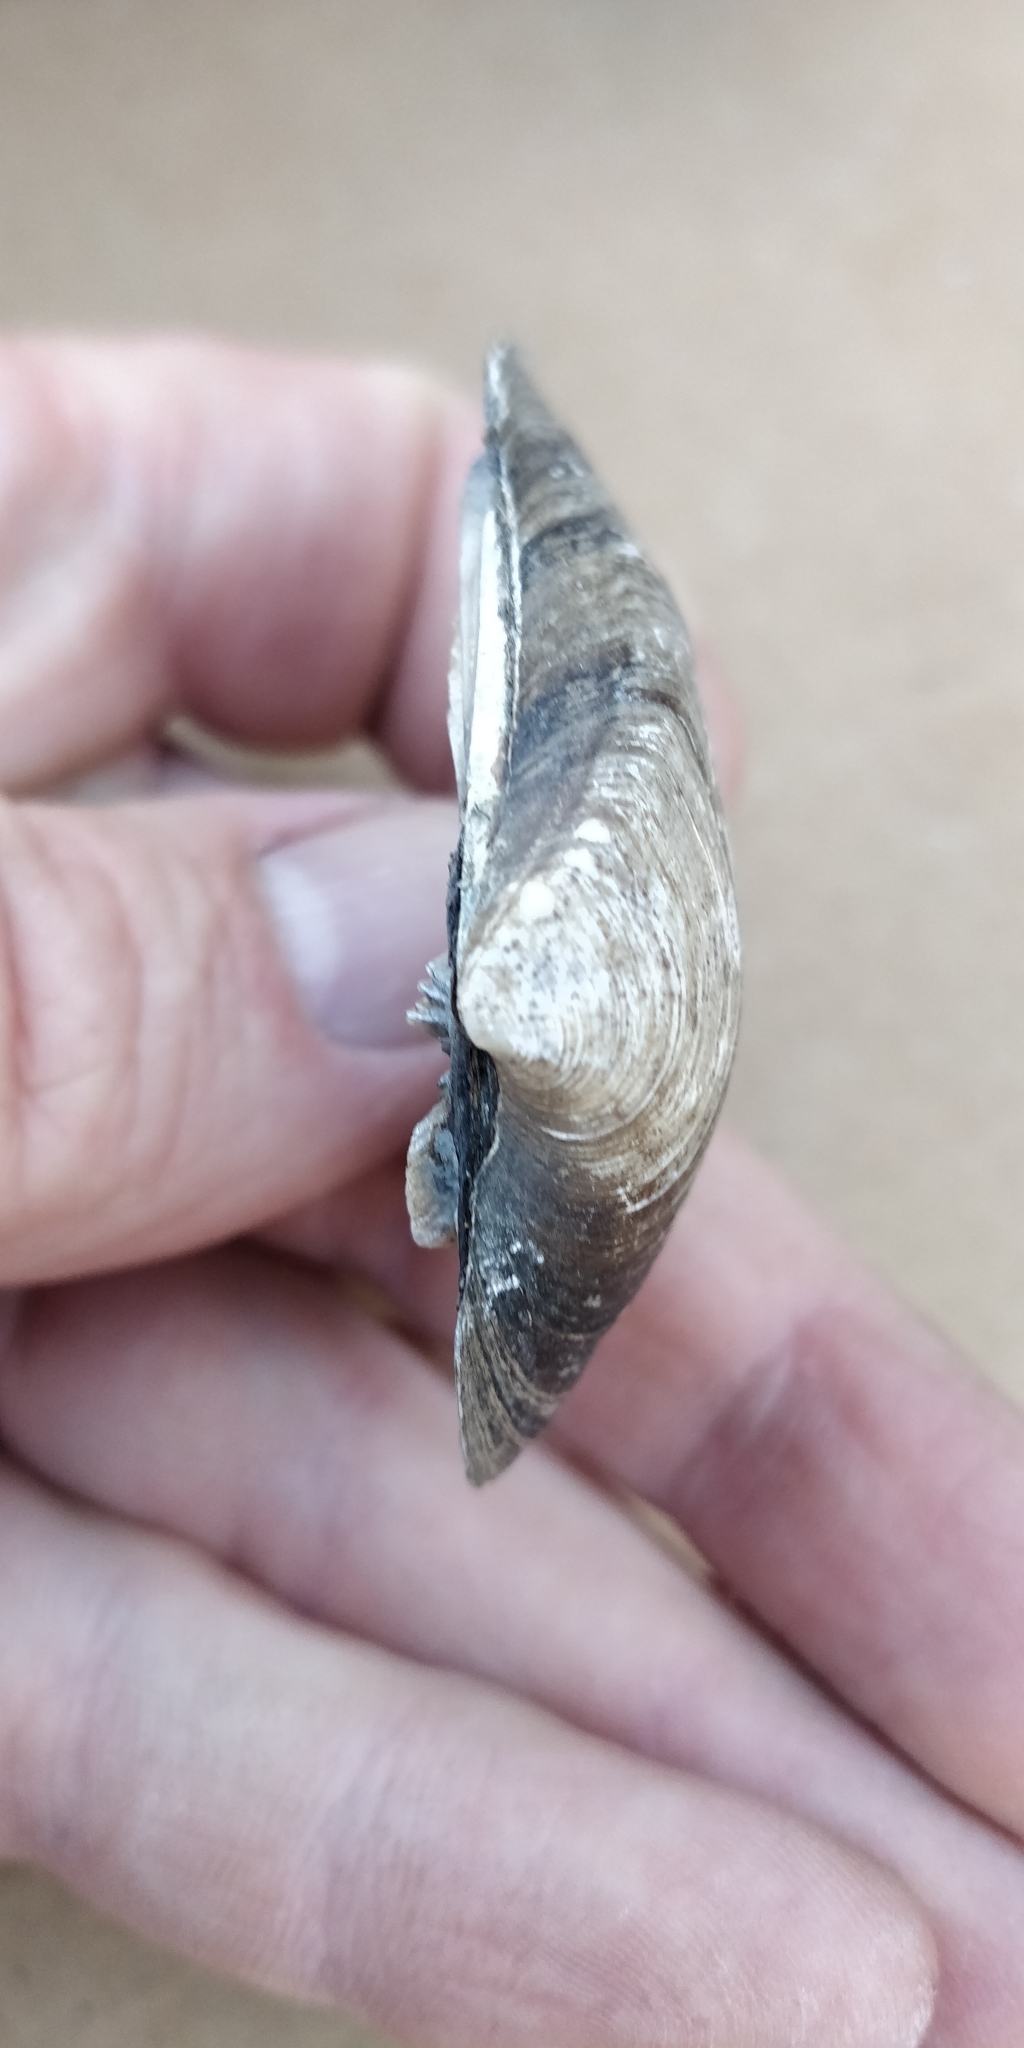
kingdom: Animalia
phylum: Mollusca
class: Bivalvia
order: Unionida
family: Unionidae
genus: Fusconaia
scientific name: Fusconaia flava
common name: Wabash pigtoe
